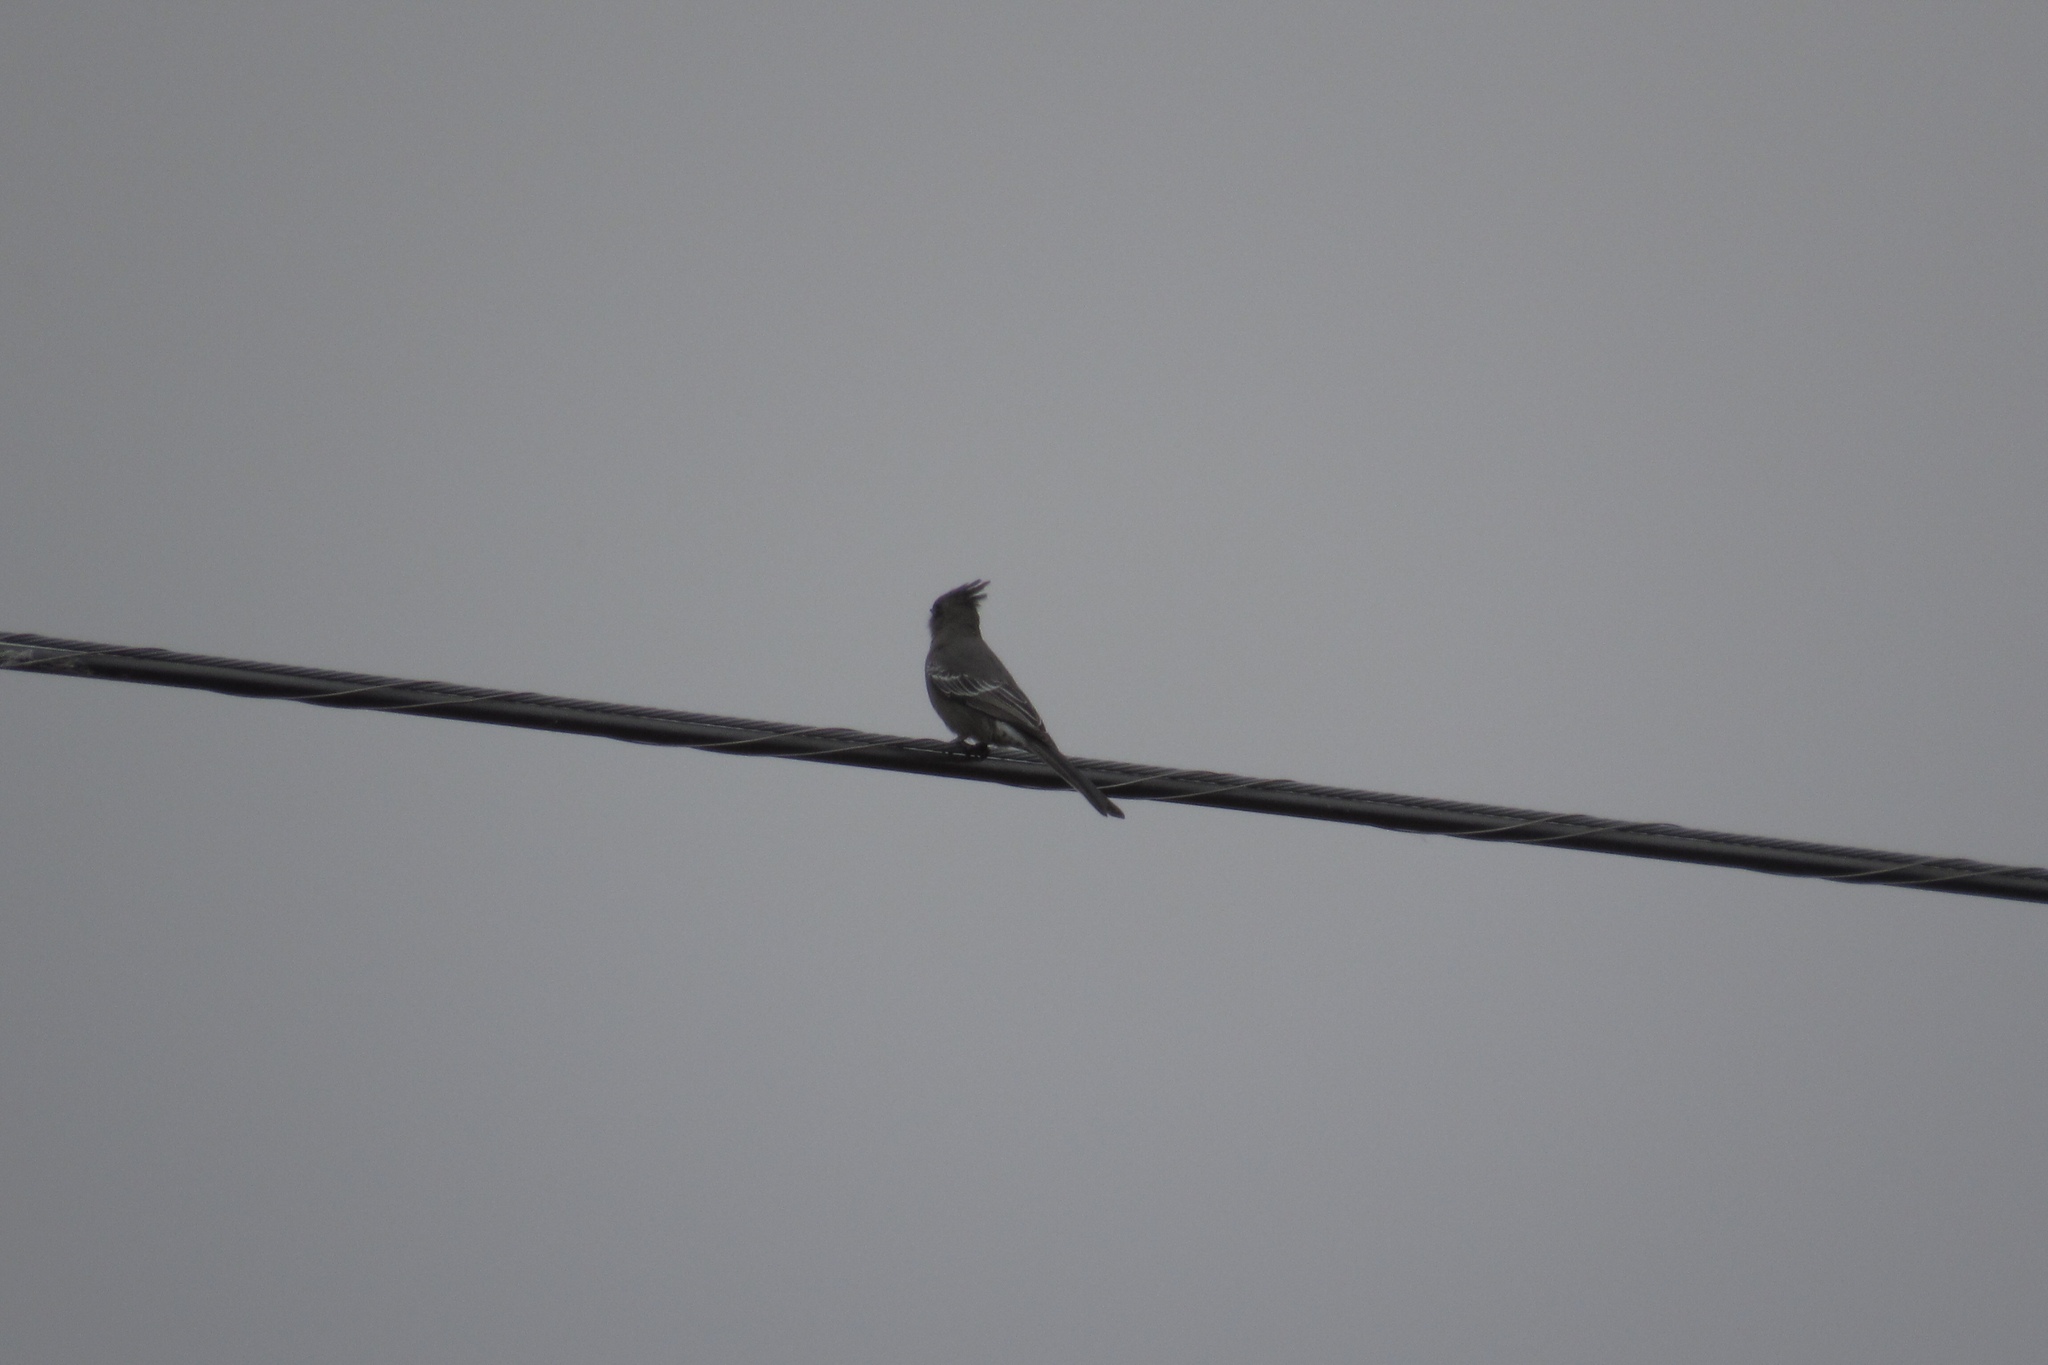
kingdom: Animalia
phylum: Chordata
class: Aves
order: Passeriformes
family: Ptilogonatidae
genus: Phainopepla
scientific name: Phainopepla nitens
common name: Phainopepla
